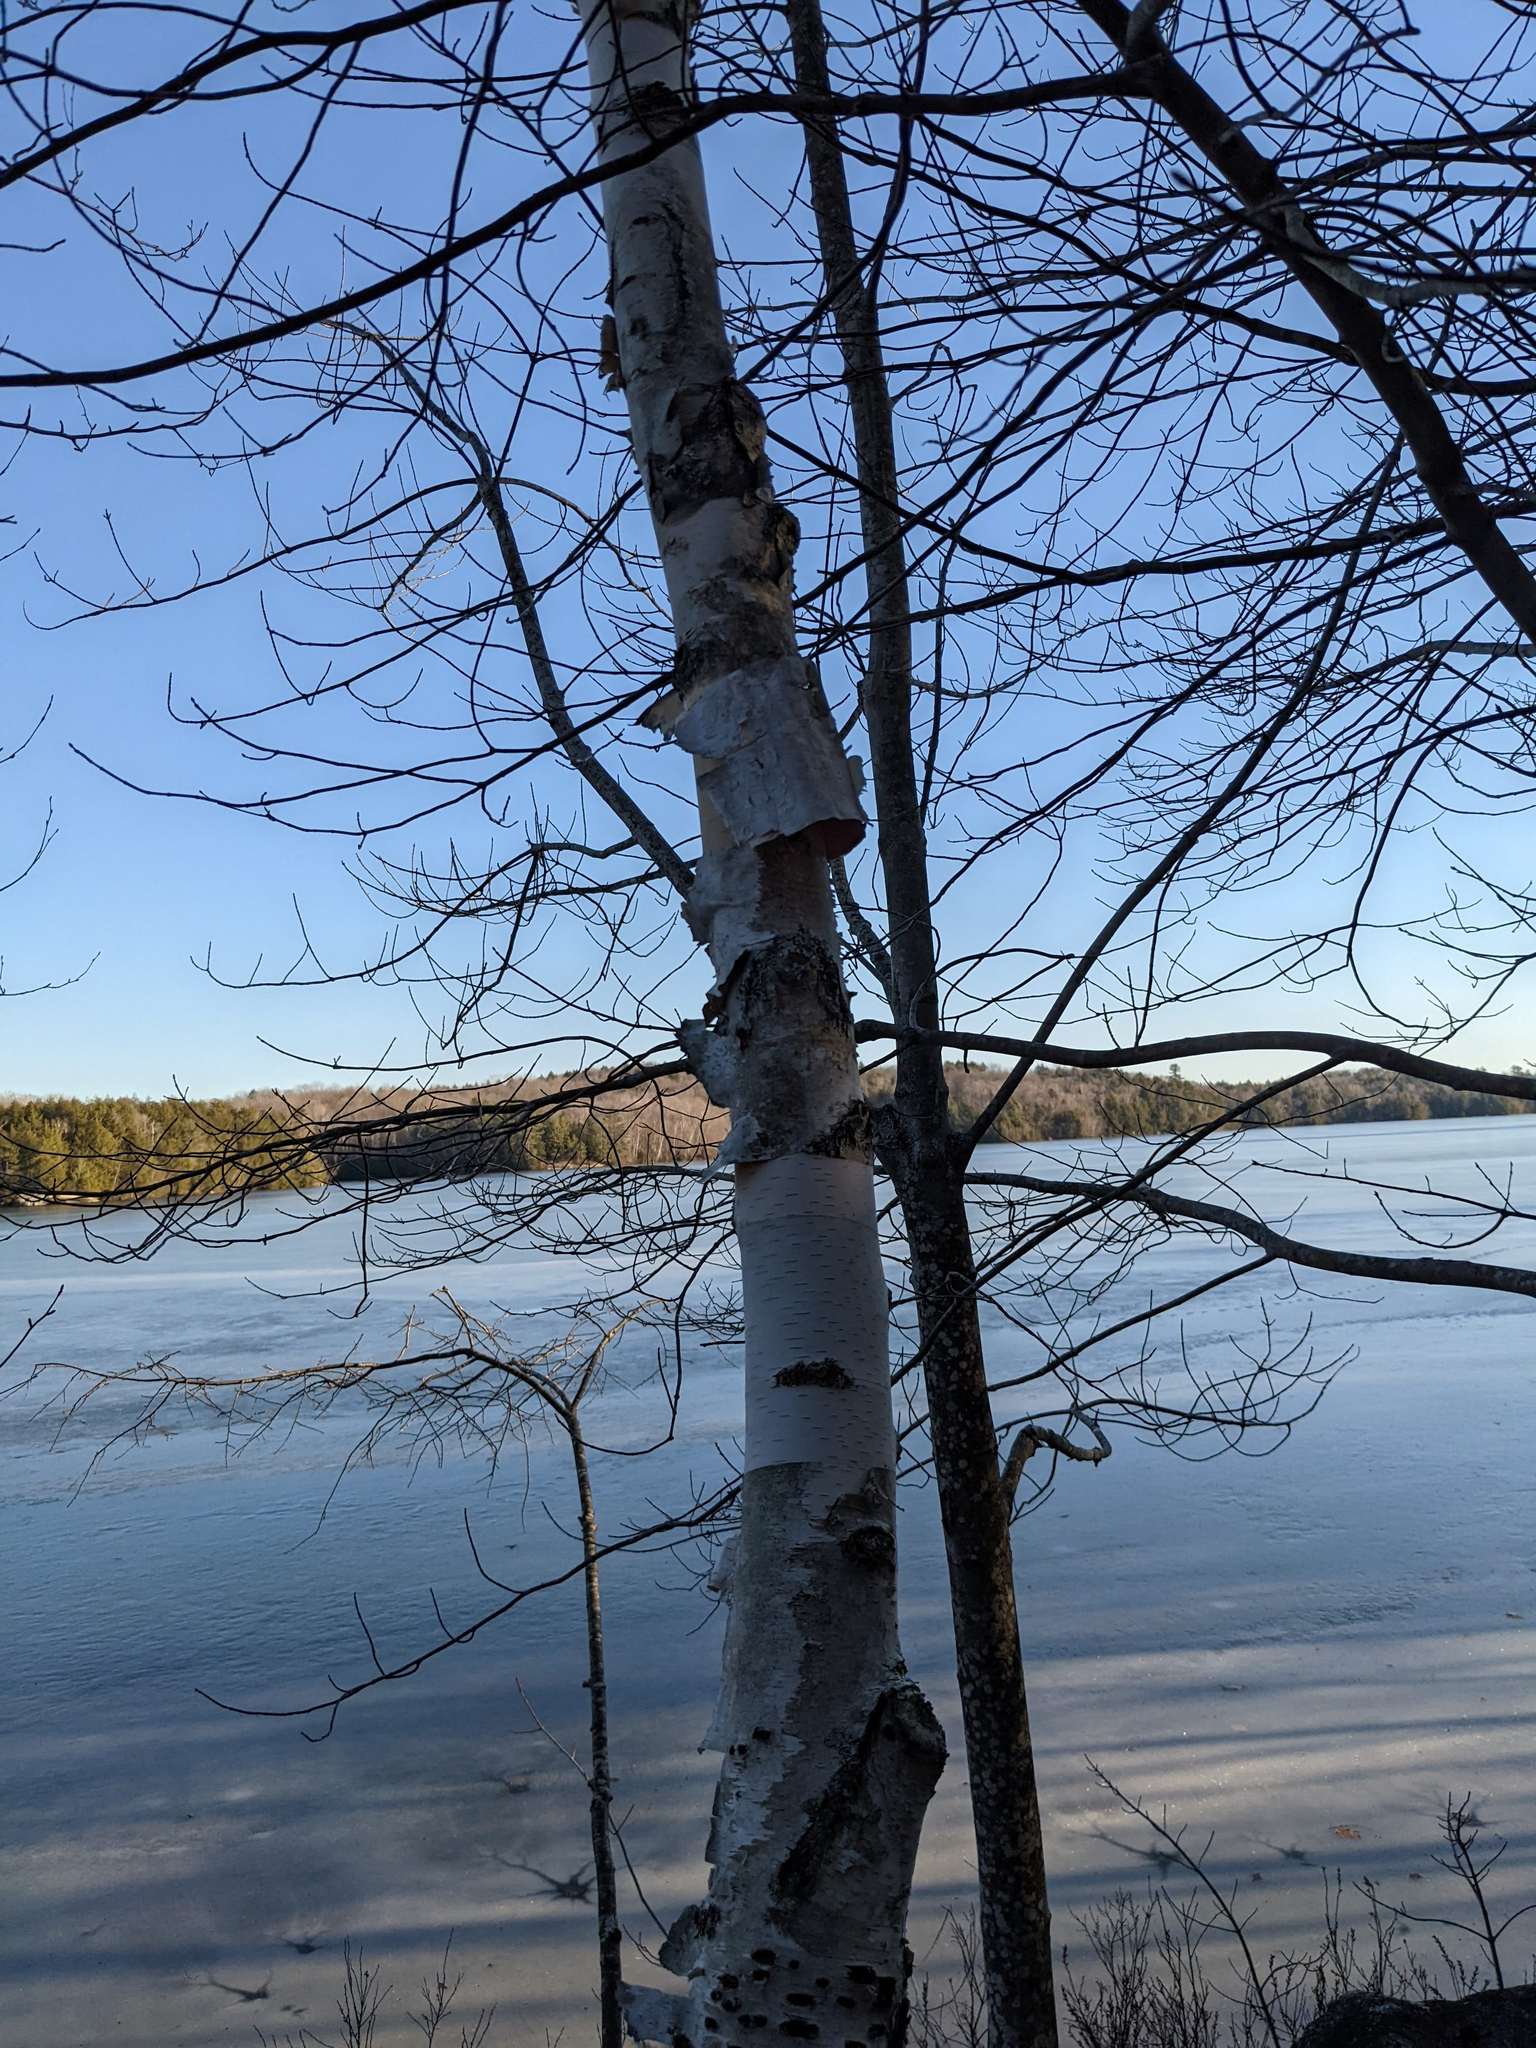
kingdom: Plantae
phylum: Tracheophyta
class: Magnoliopsida
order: Fagales
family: Betulaceae
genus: Betula
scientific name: Betula papyrifera
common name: Paper birch
